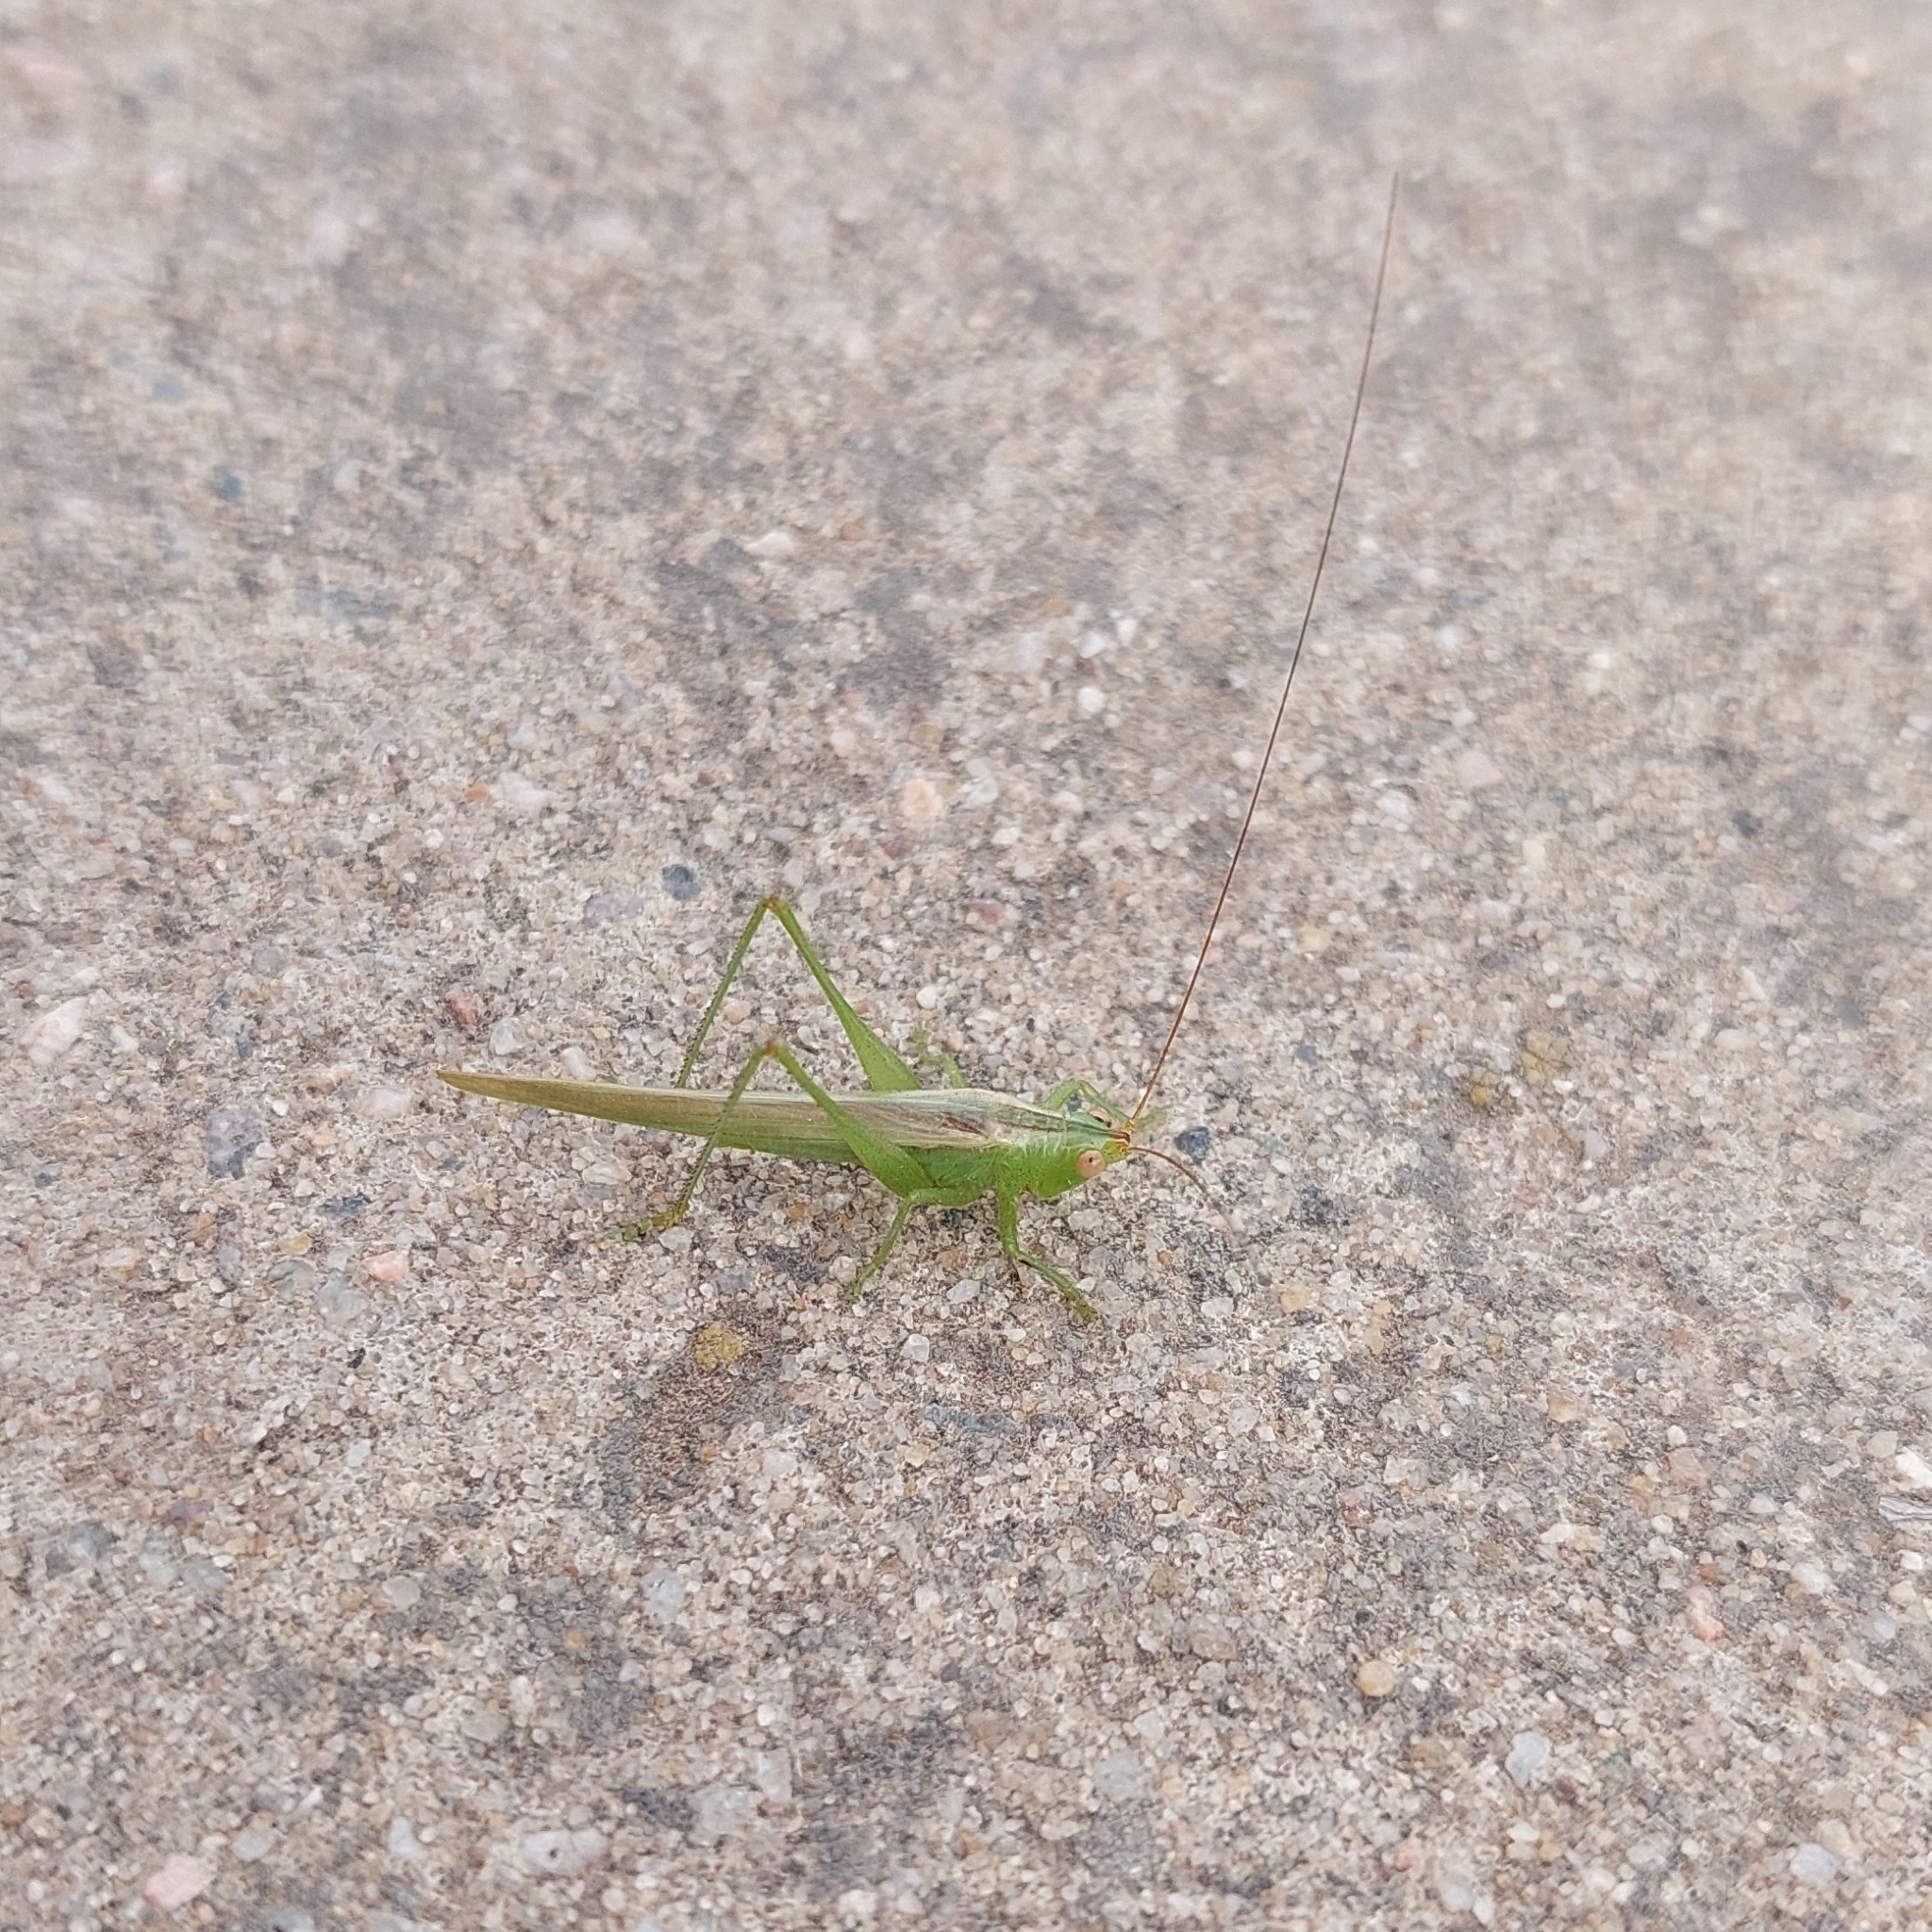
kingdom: Animalia
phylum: Arthropoda
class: Insecta
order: Orthoptera
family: Tettigoniidae
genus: Conocephalus
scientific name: Conocephalus longipes
